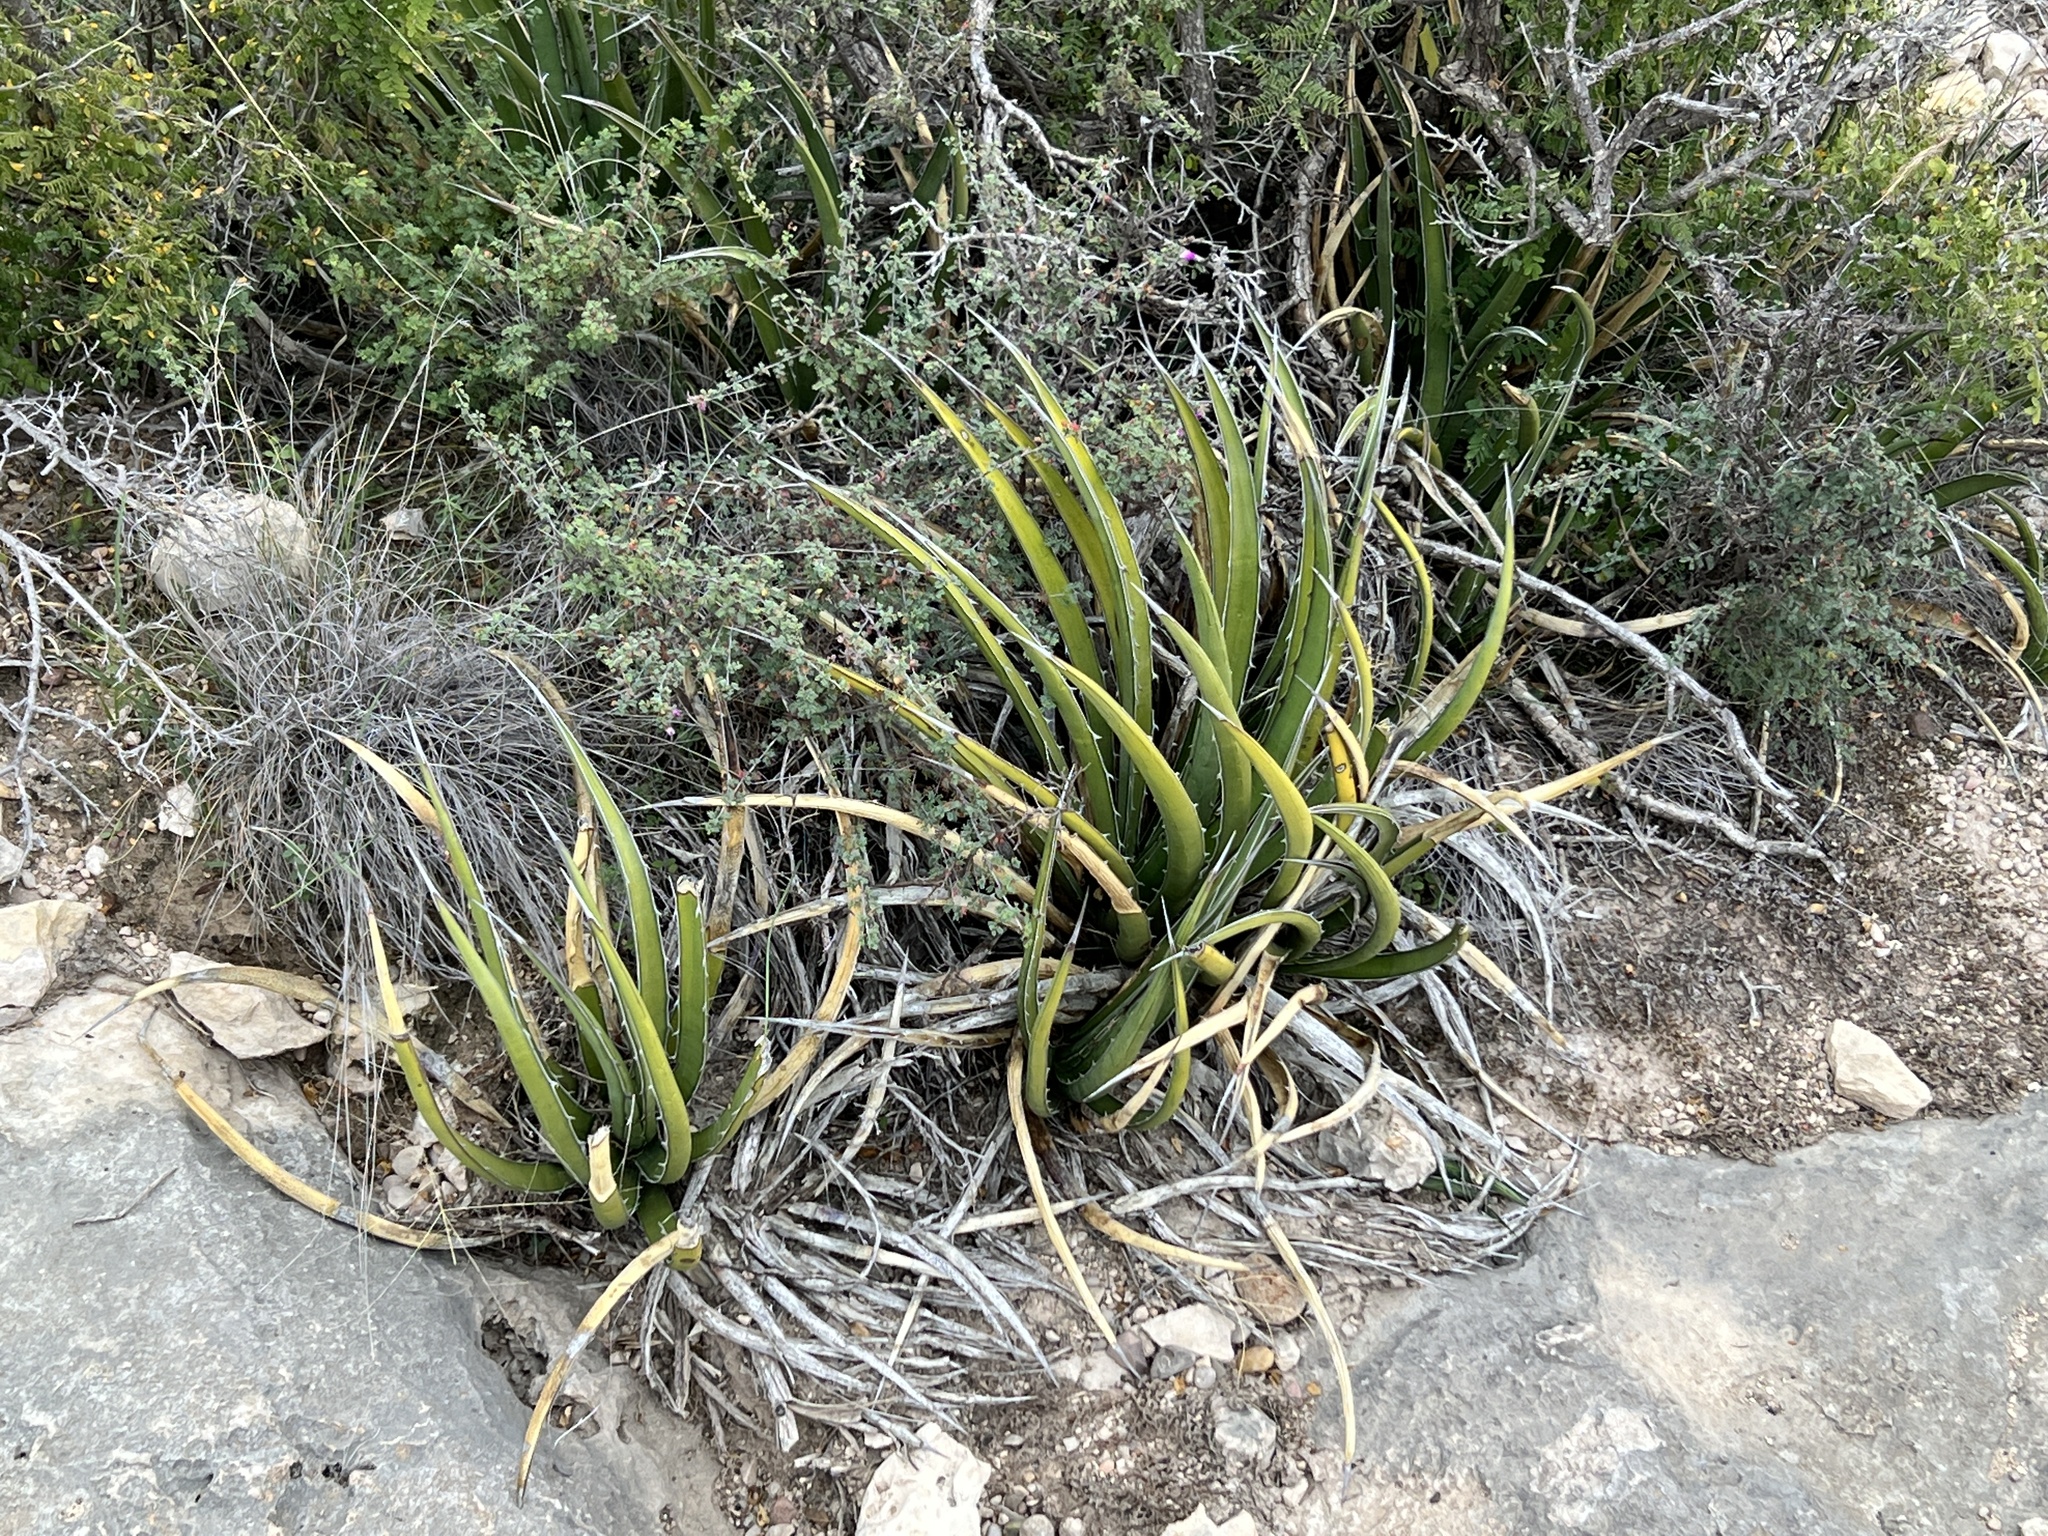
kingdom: Plantae
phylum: Tracheophyta
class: Liliopsida
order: Asparagales
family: Asparagaceae
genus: Agave
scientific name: Agave lechuguilla
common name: Lecheguilla agave
